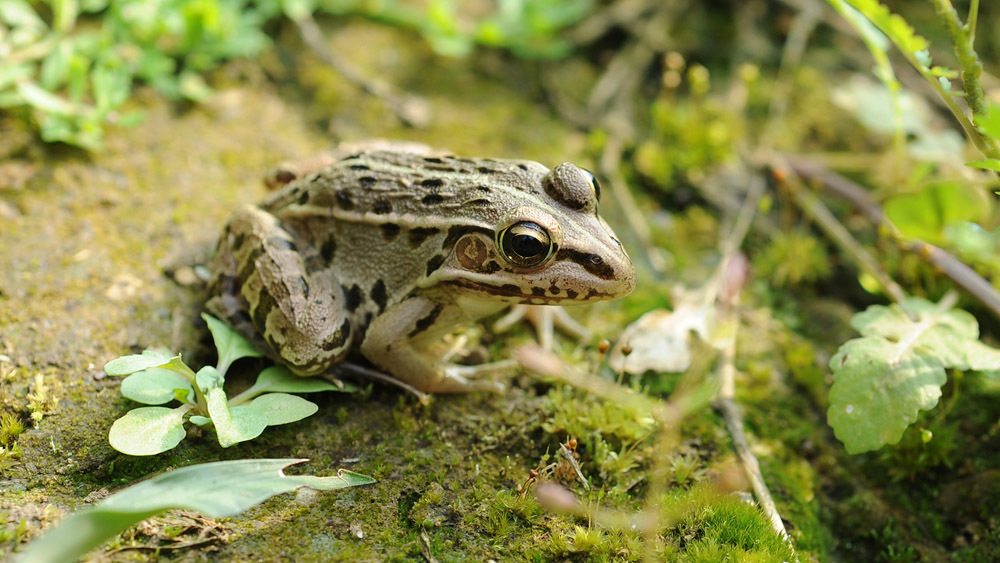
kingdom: Animalia
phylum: Chordata
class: Amphibia
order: Anura
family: Ranidae
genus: Pelophylax
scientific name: Pelophylax nigromaculatus
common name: Black-spotted pond frog
